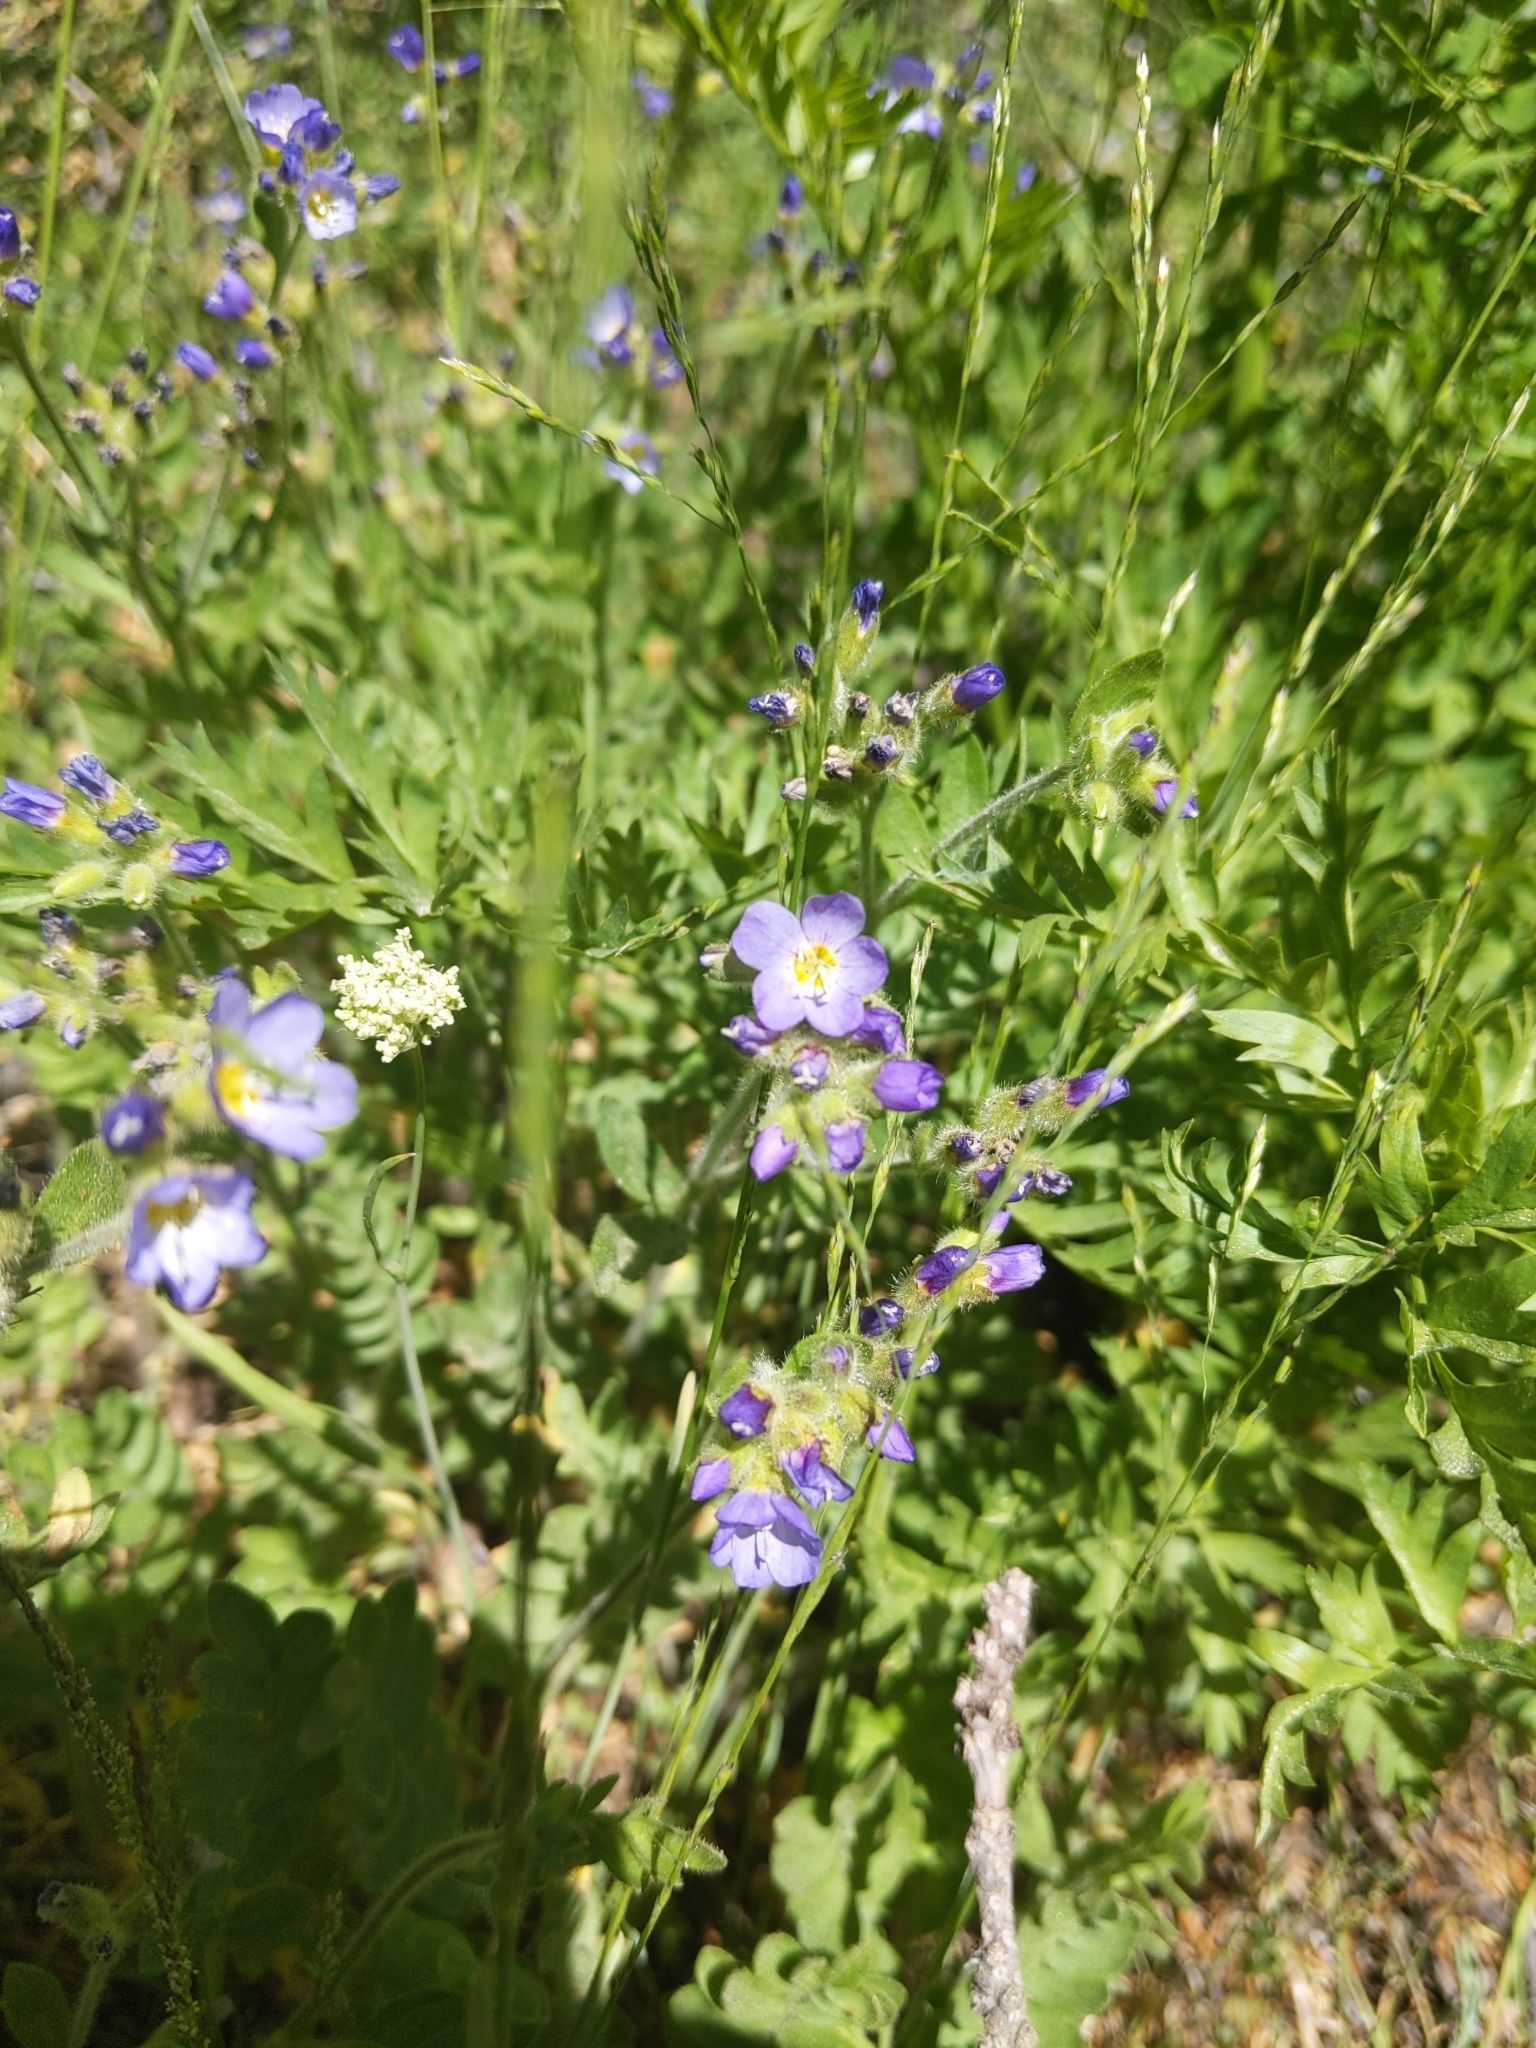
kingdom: Plantae
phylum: Tracheophyta
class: Magnoliopsida
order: Ericales
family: Polemoniaceae
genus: Polemonium
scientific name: Polemonium californicum
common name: California jacob's ladder
